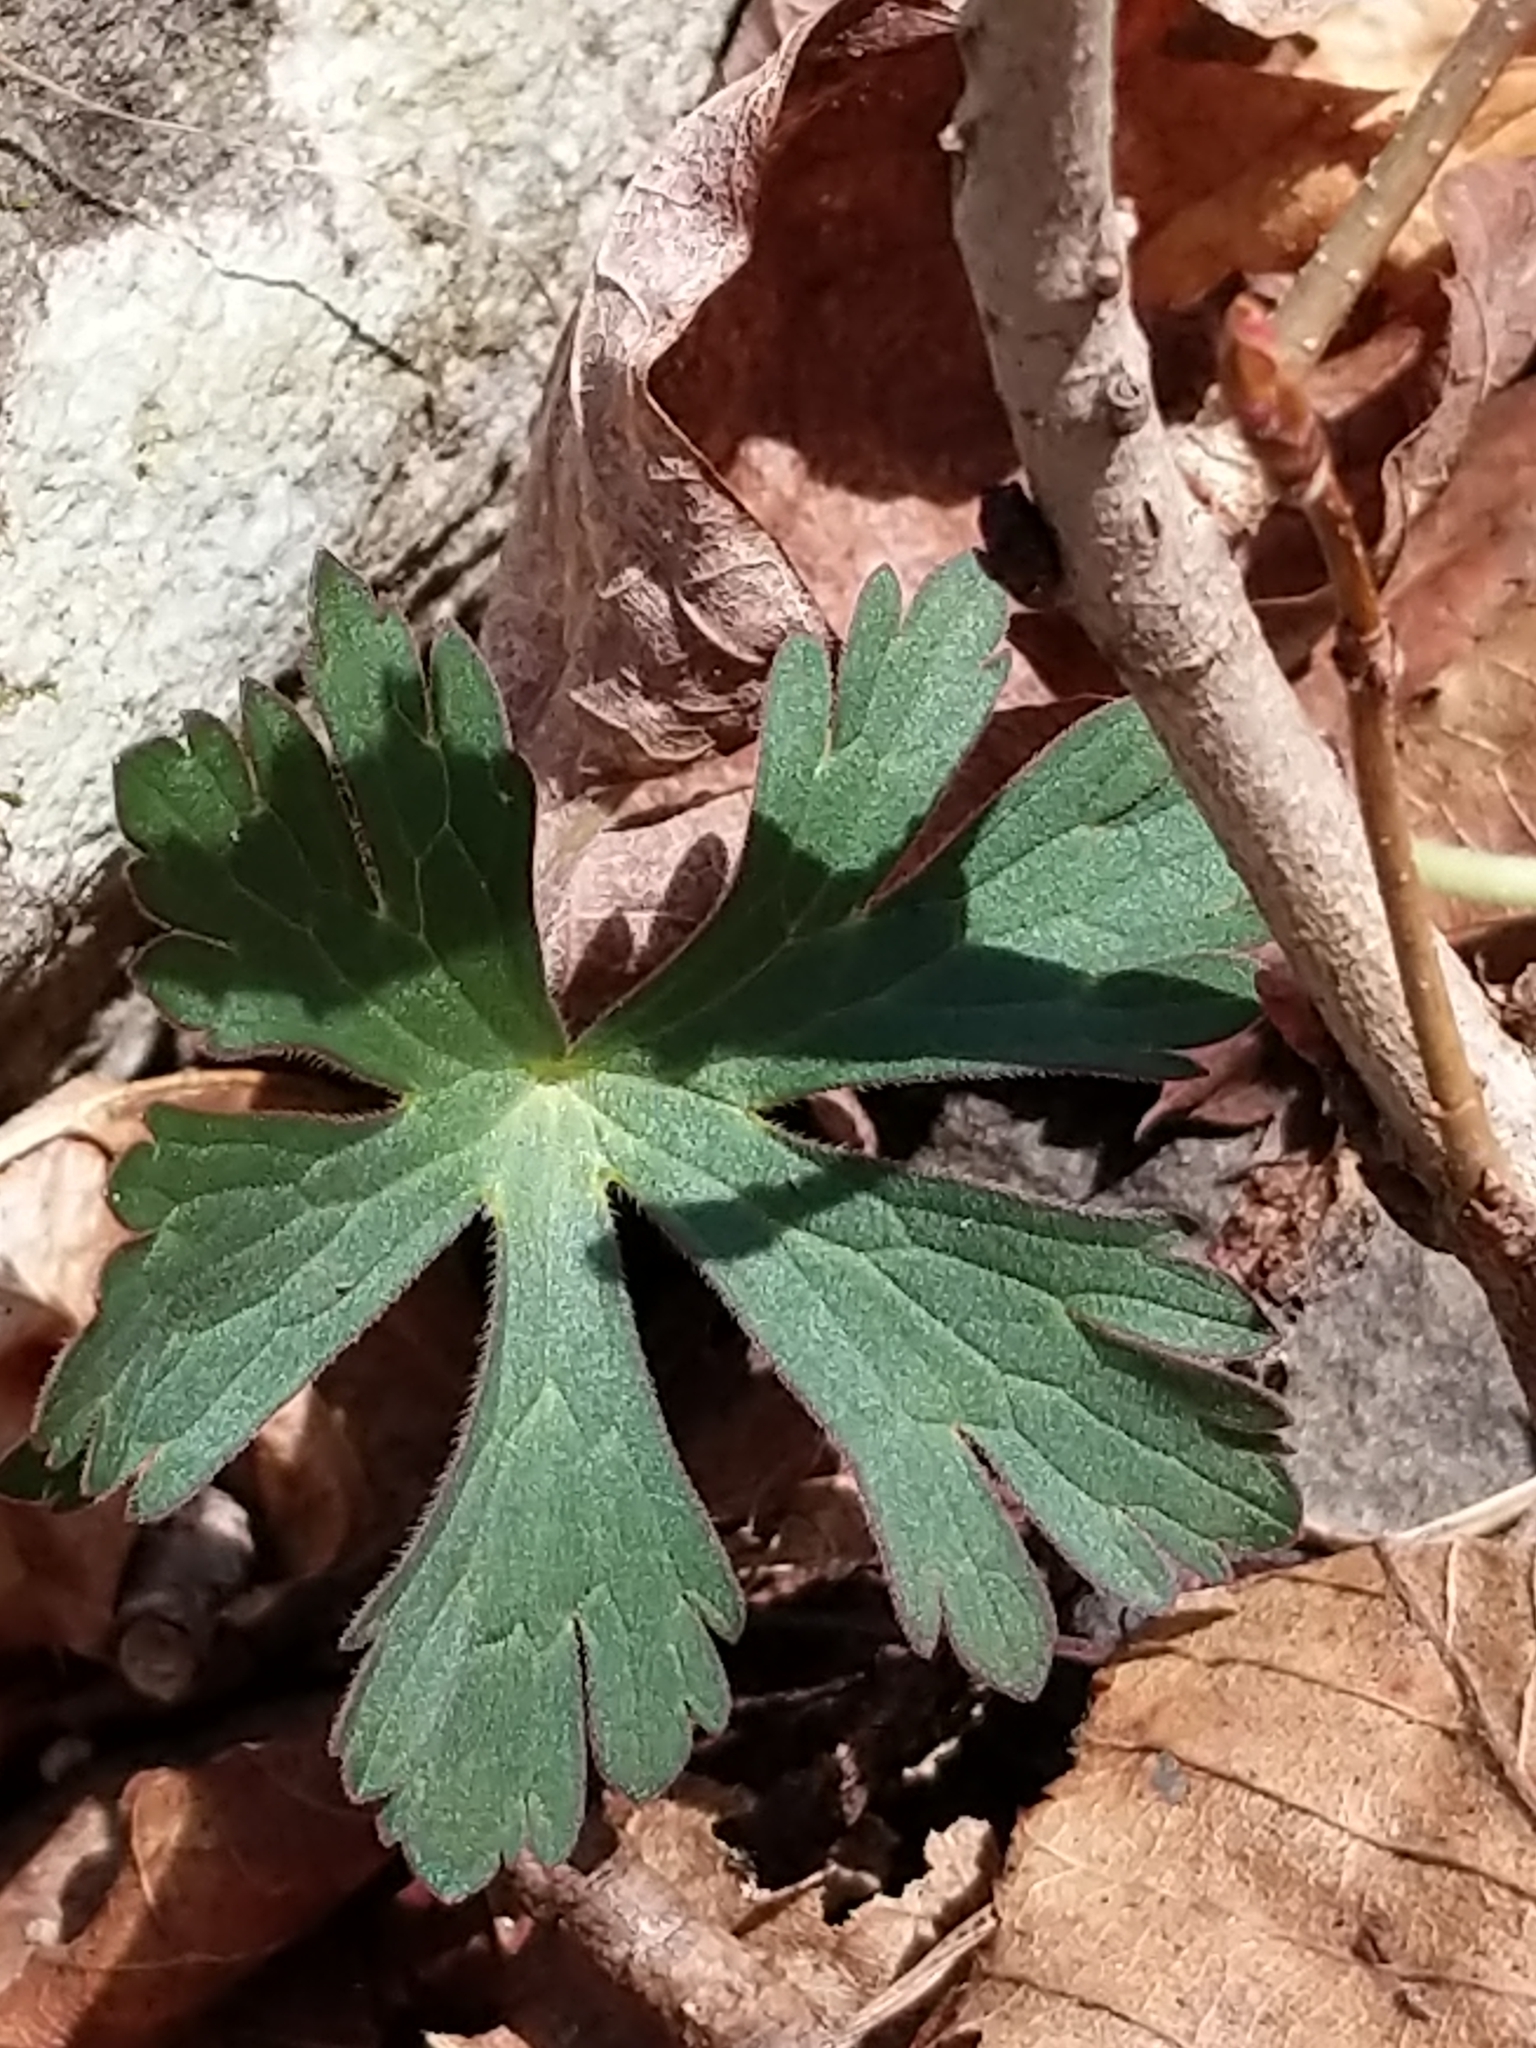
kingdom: Plantae
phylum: Tracheophyta
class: Magnoliopsida
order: Geraniales
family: Geraniaceae
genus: Geranium
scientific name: Geranium maculatum
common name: Spotted geranium
